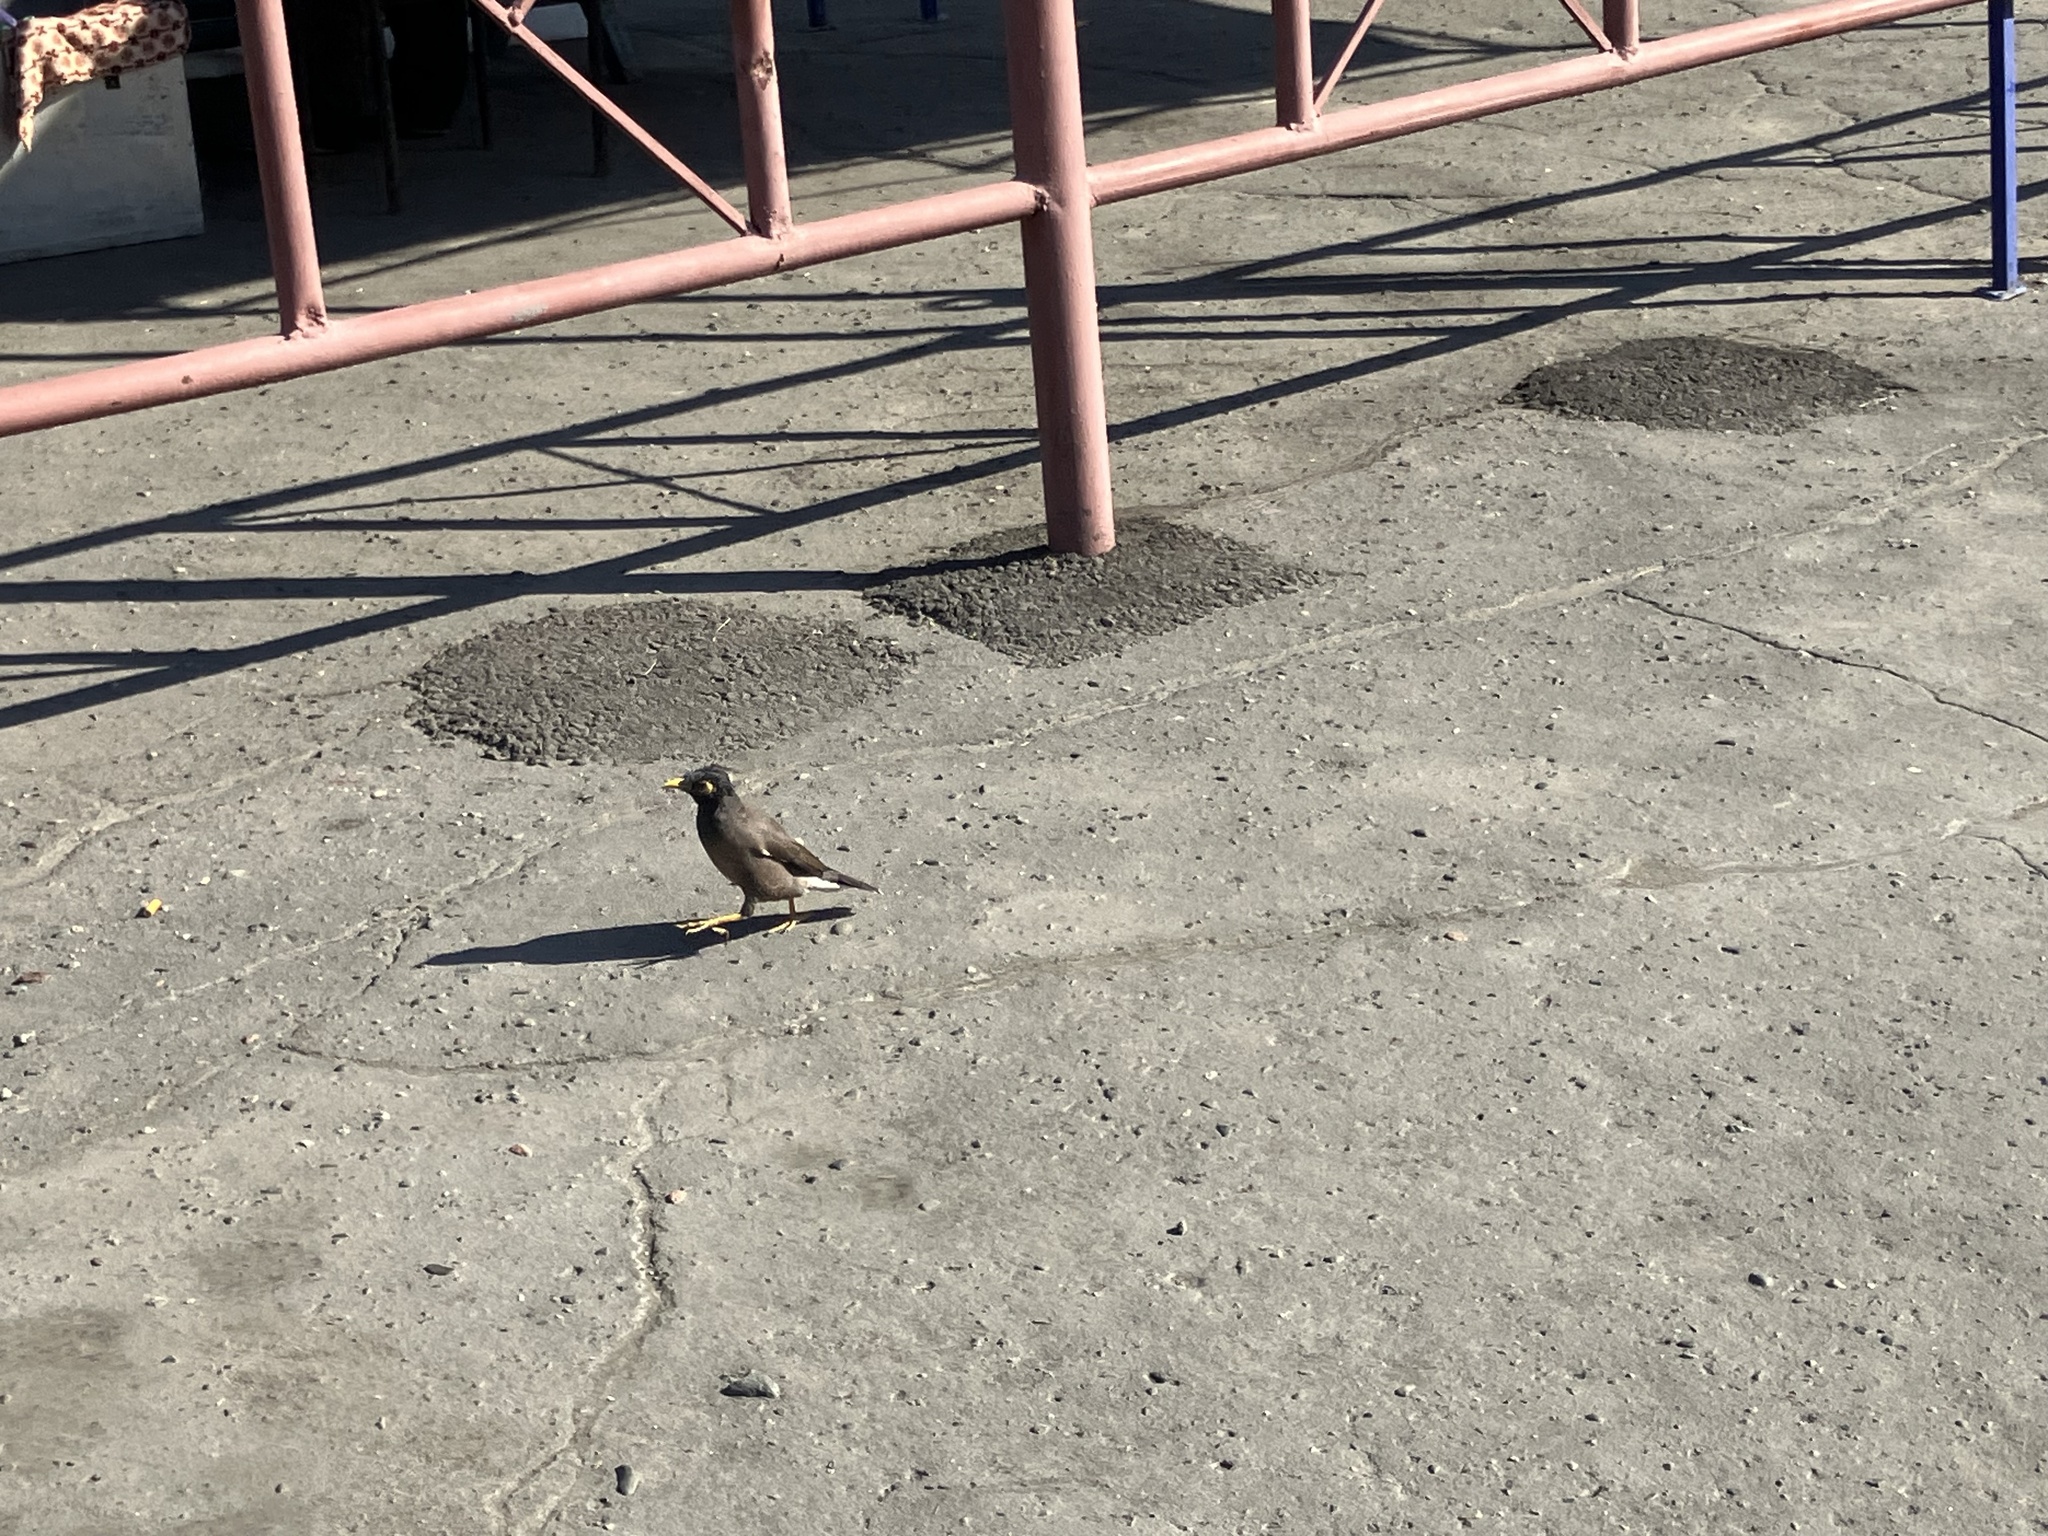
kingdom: Animalia
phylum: Chordata
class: Aves
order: Passeriformes
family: Sturnidae
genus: Acridotheres
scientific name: Acridotheres tristis
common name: Common myna
